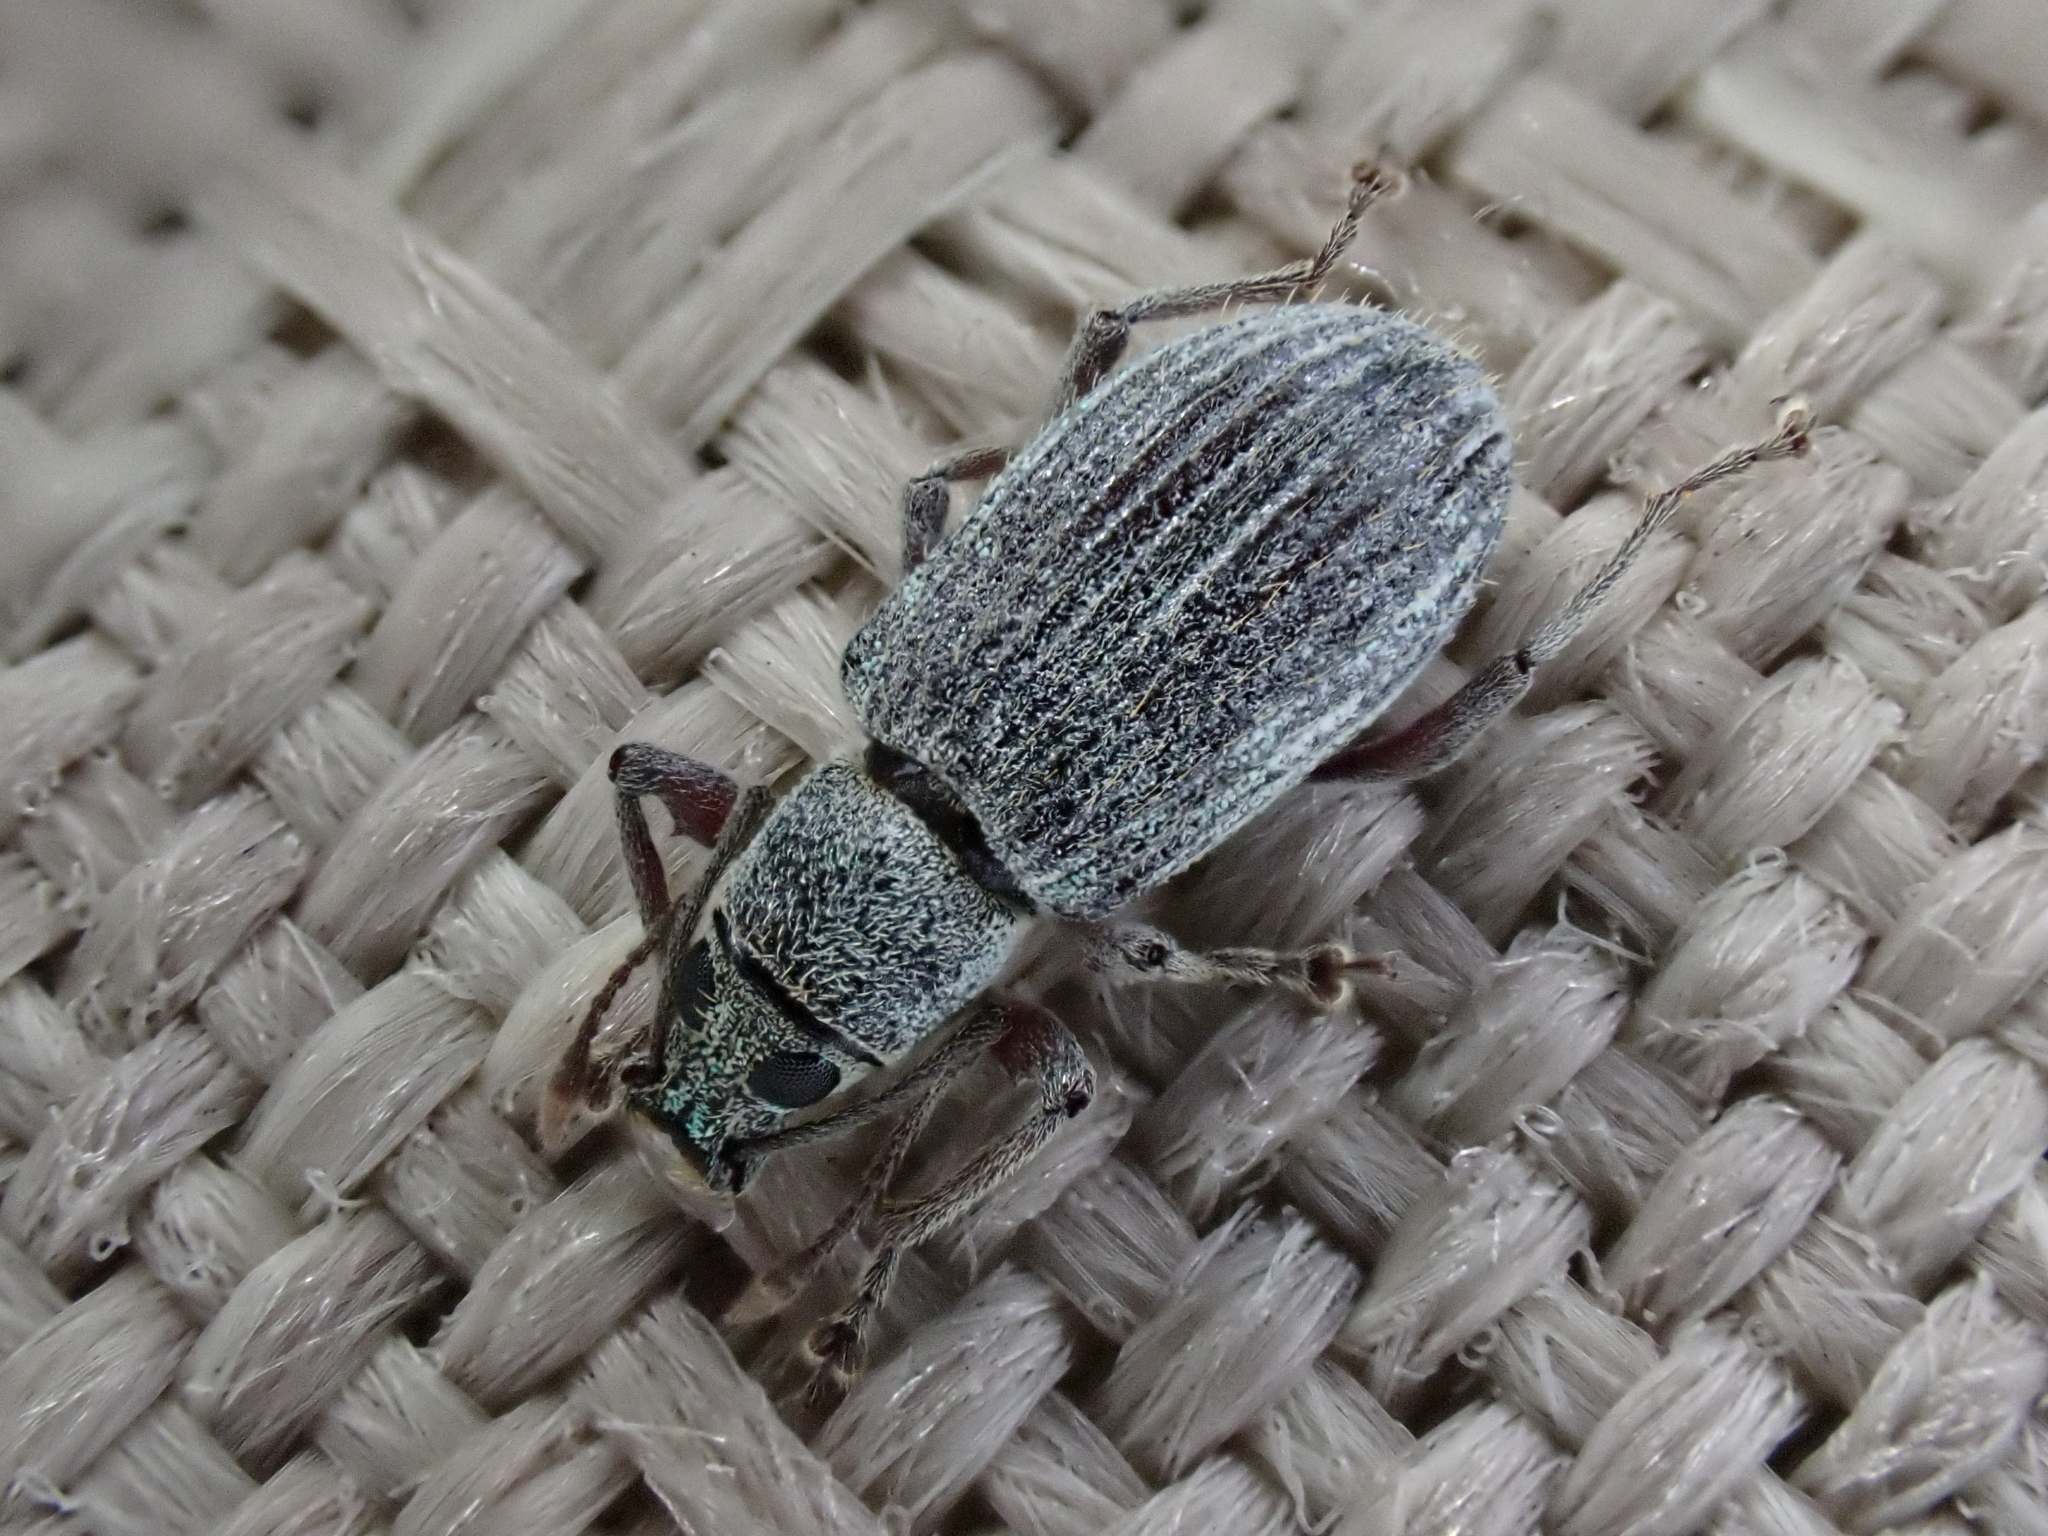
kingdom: Animalia
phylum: Arthropoda
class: Insecta
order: Coleoptera
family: Curculionidae
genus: Cyrtepistomus
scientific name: Cyrtepistomus castaneus
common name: Weevil
